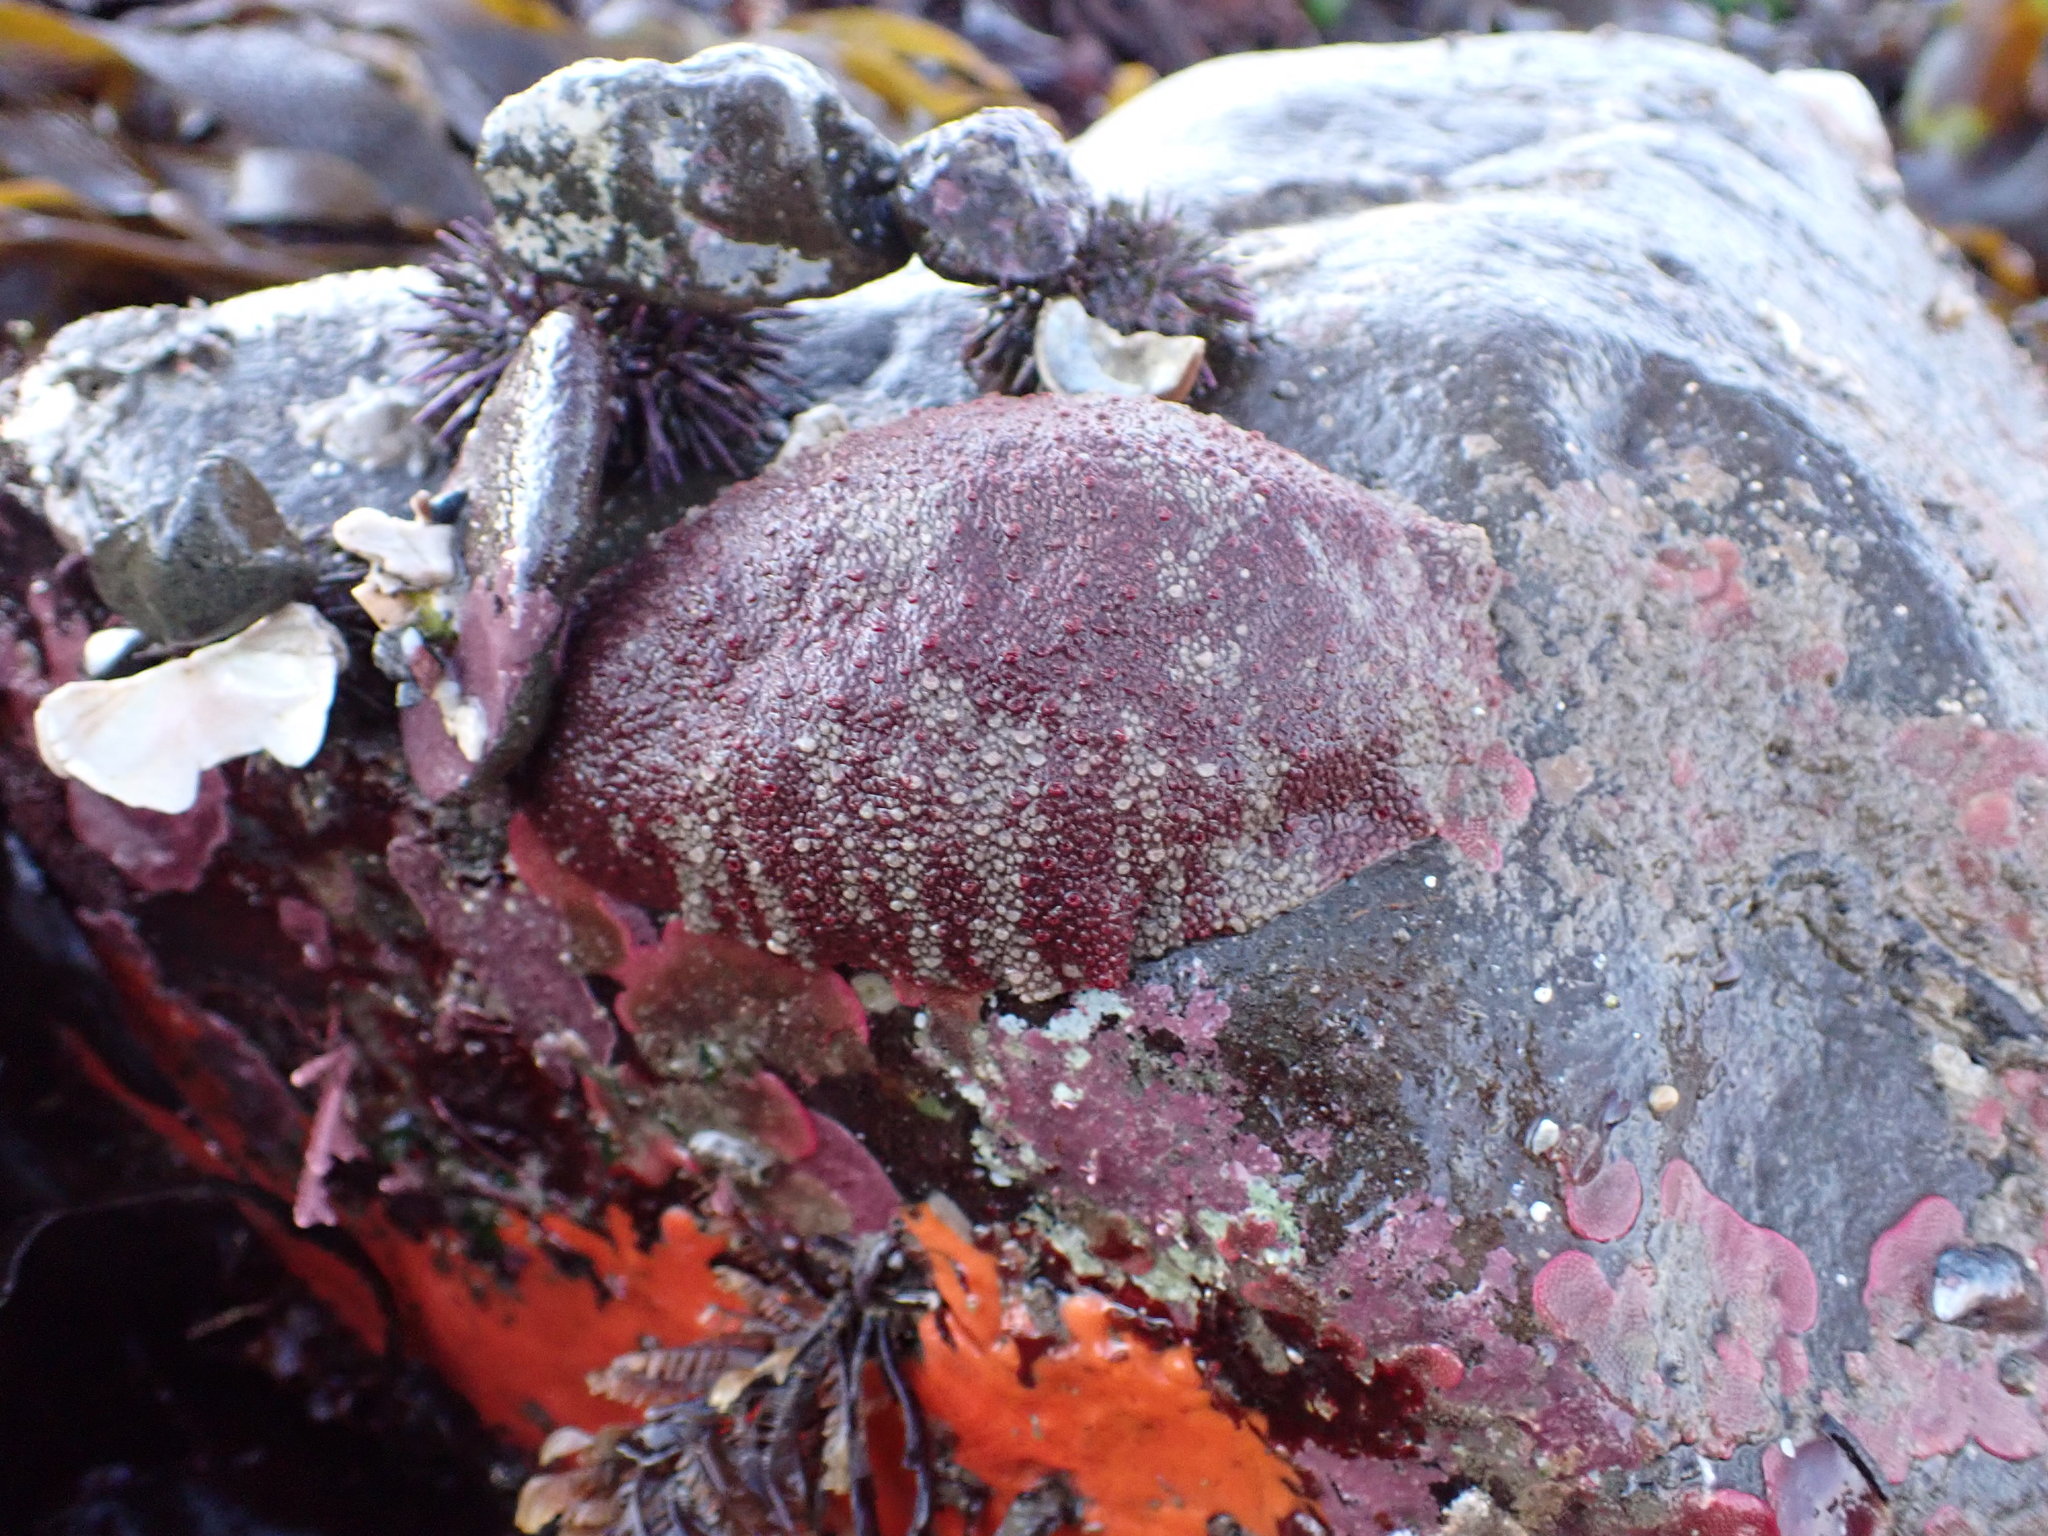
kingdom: Animalia
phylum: Mollusca
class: Polyplacophora
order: Chitonida
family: Acanthochitonidae
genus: Cryptochiton
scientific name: Cryptochiton stelleri
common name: Giant pacific chiton
